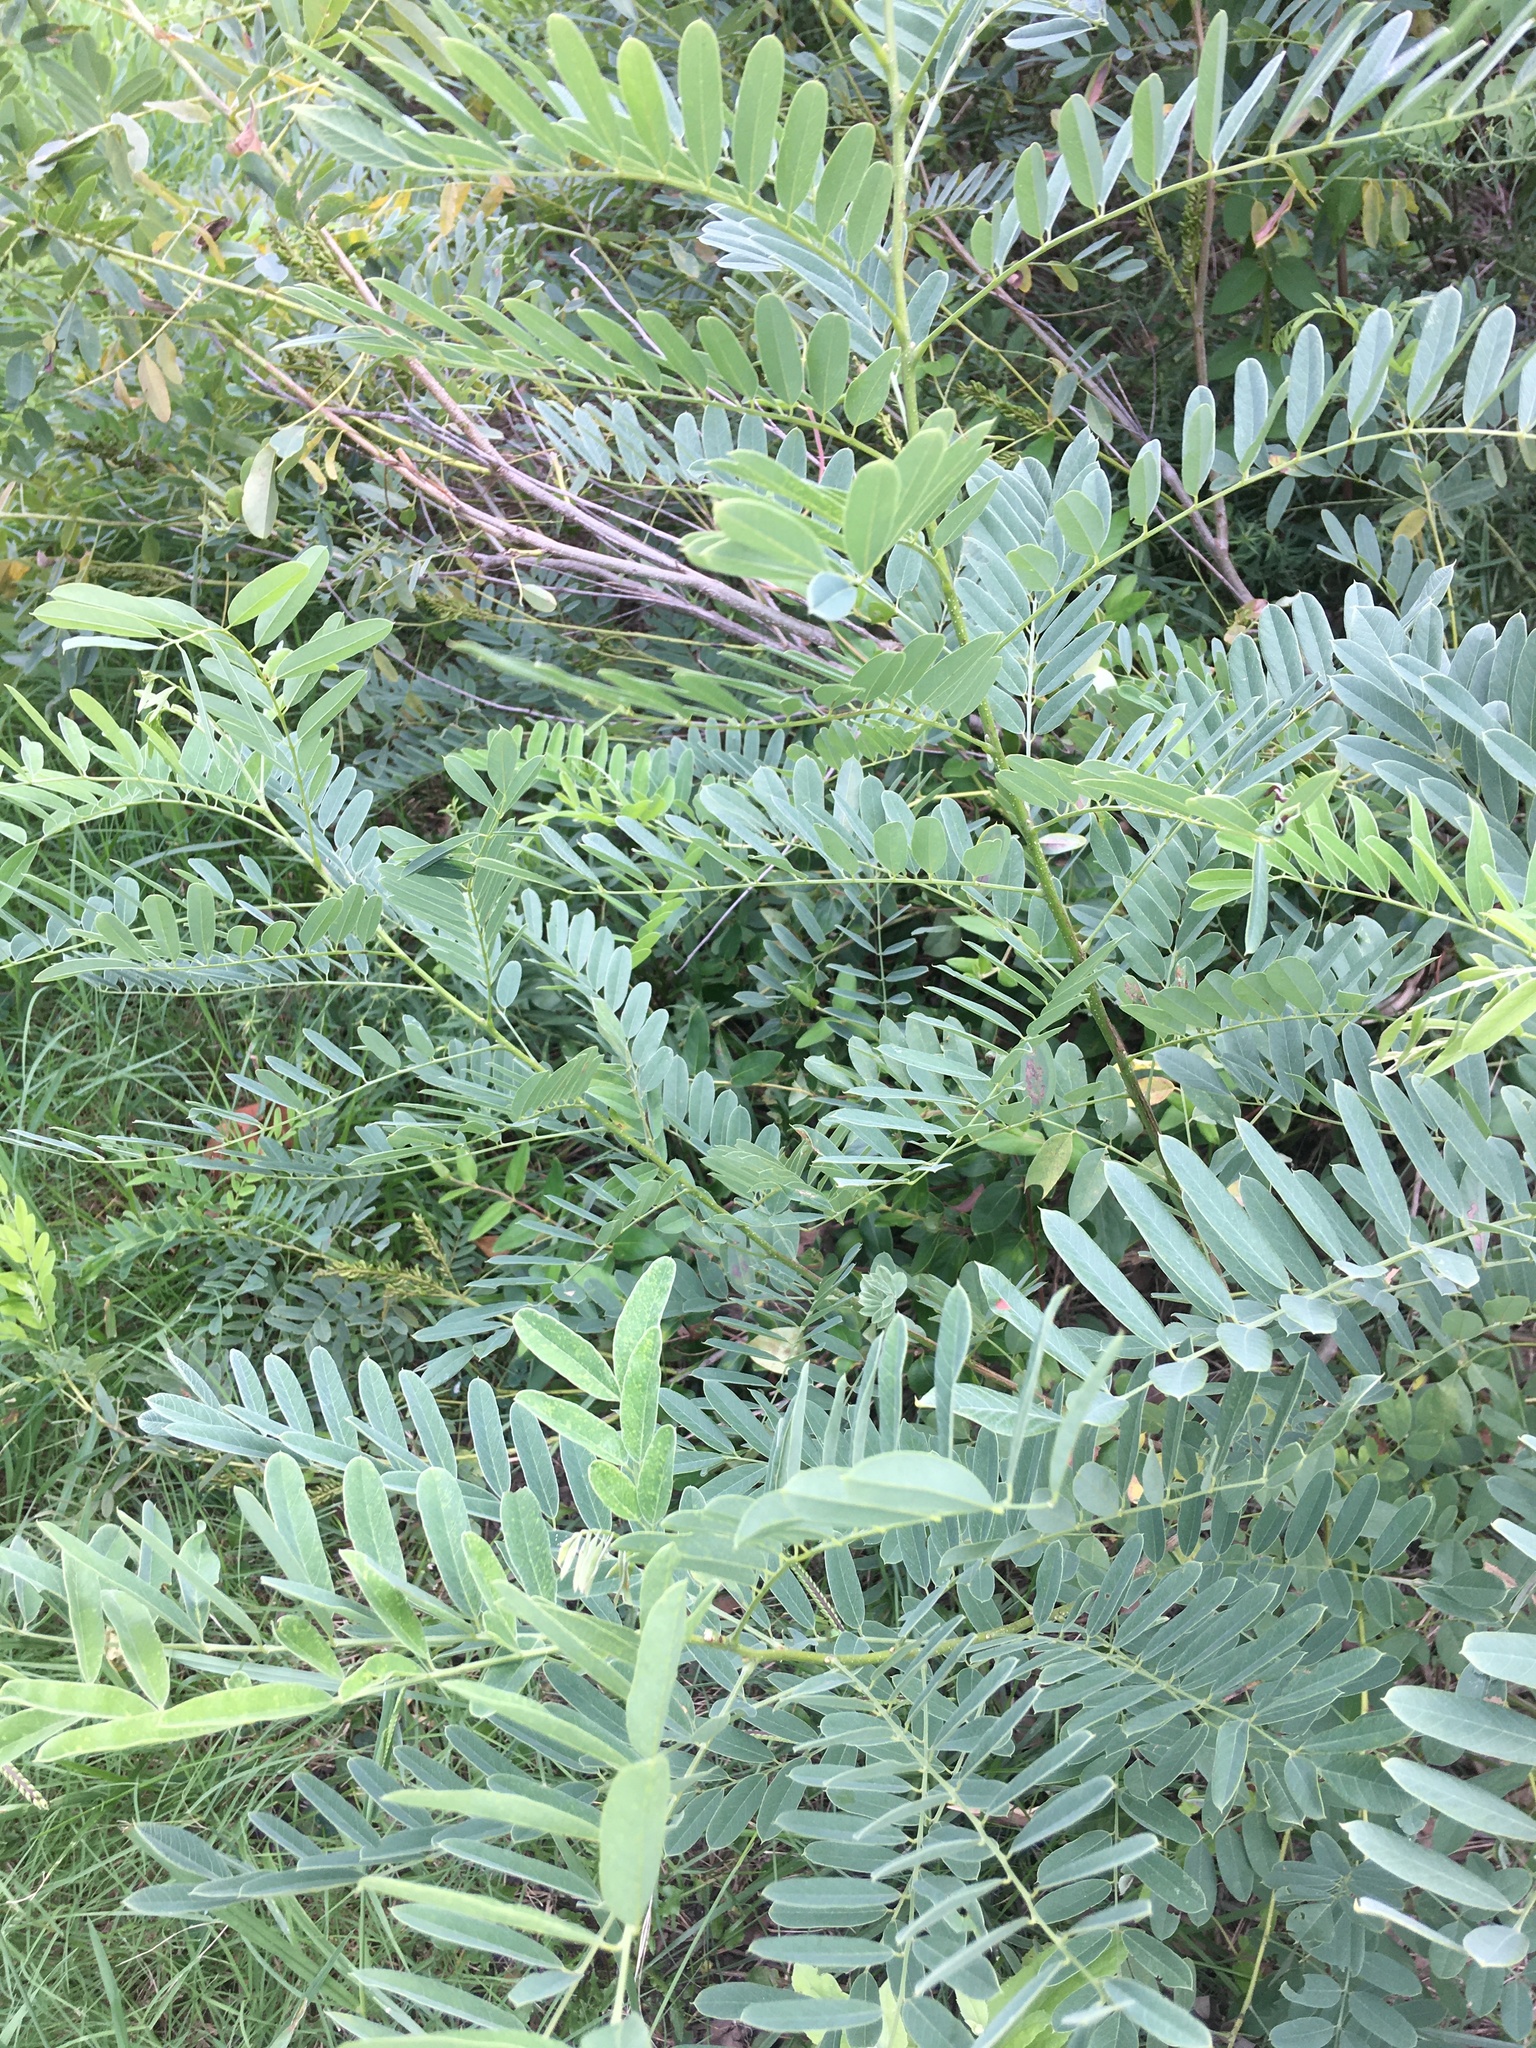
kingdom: Plantae
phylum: Tracheophyta
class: Magnoliopsida
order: Fabales
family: Fabaceae
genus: Amorpha
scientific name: Amorpha fruticosa
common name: False indigo
